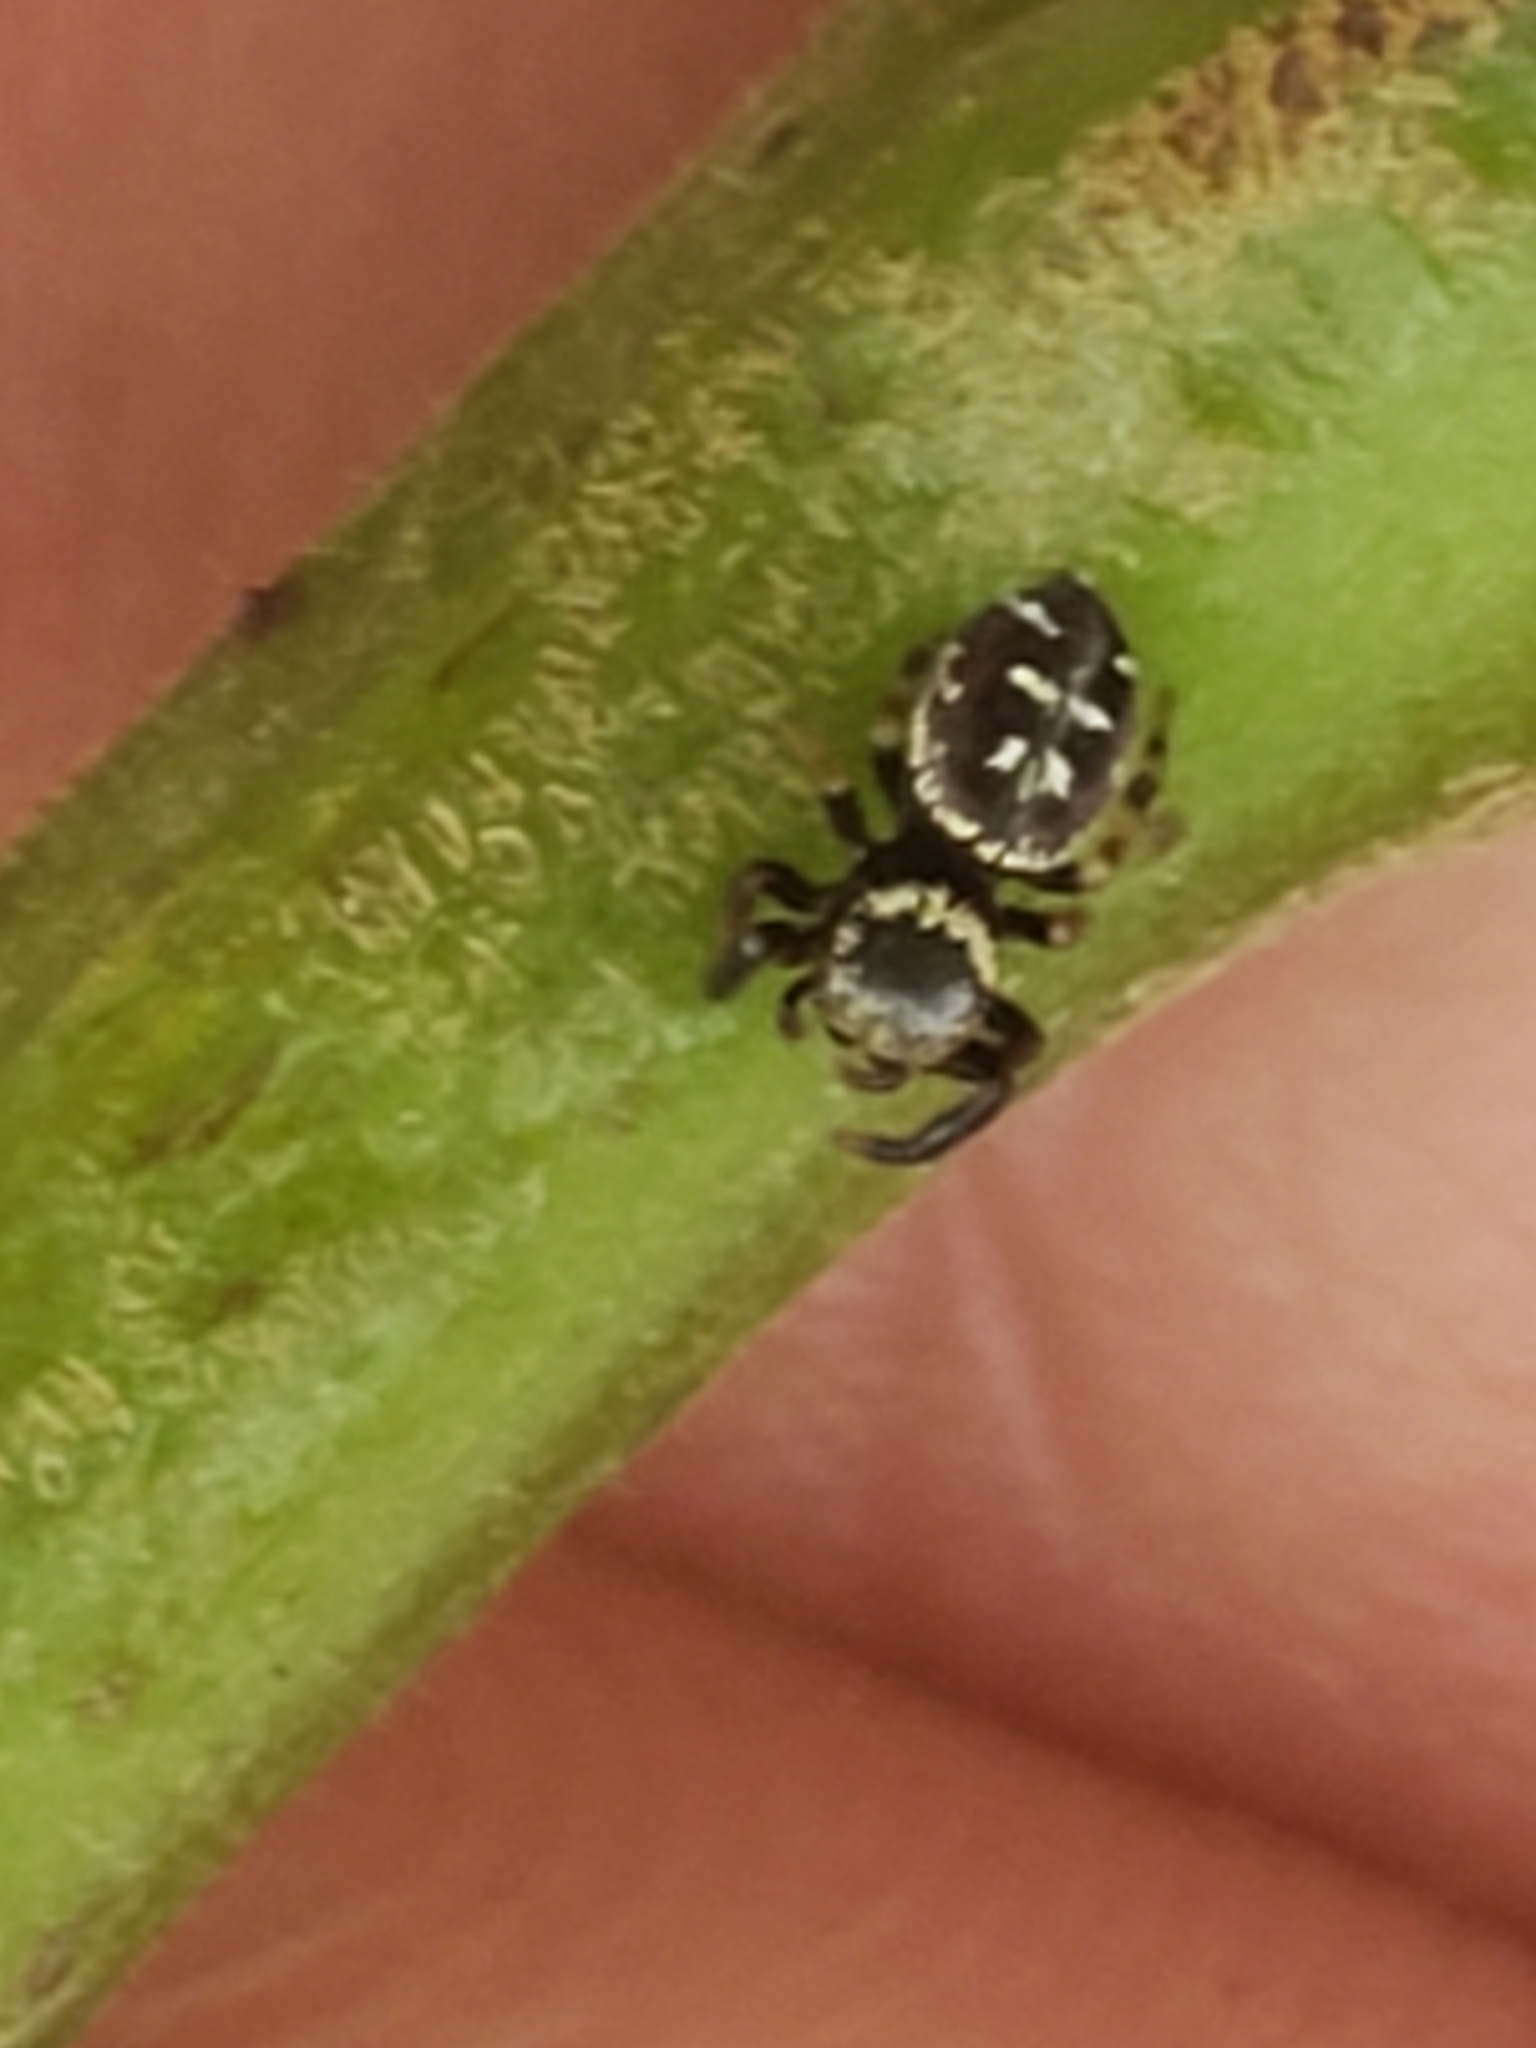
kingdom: Animalia
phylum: Arthropoda
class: Arachnida
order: Araneae
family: Salticidae
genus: Paraphidippus
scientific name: Paraphidippus aurantius
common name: Jumping spiders
